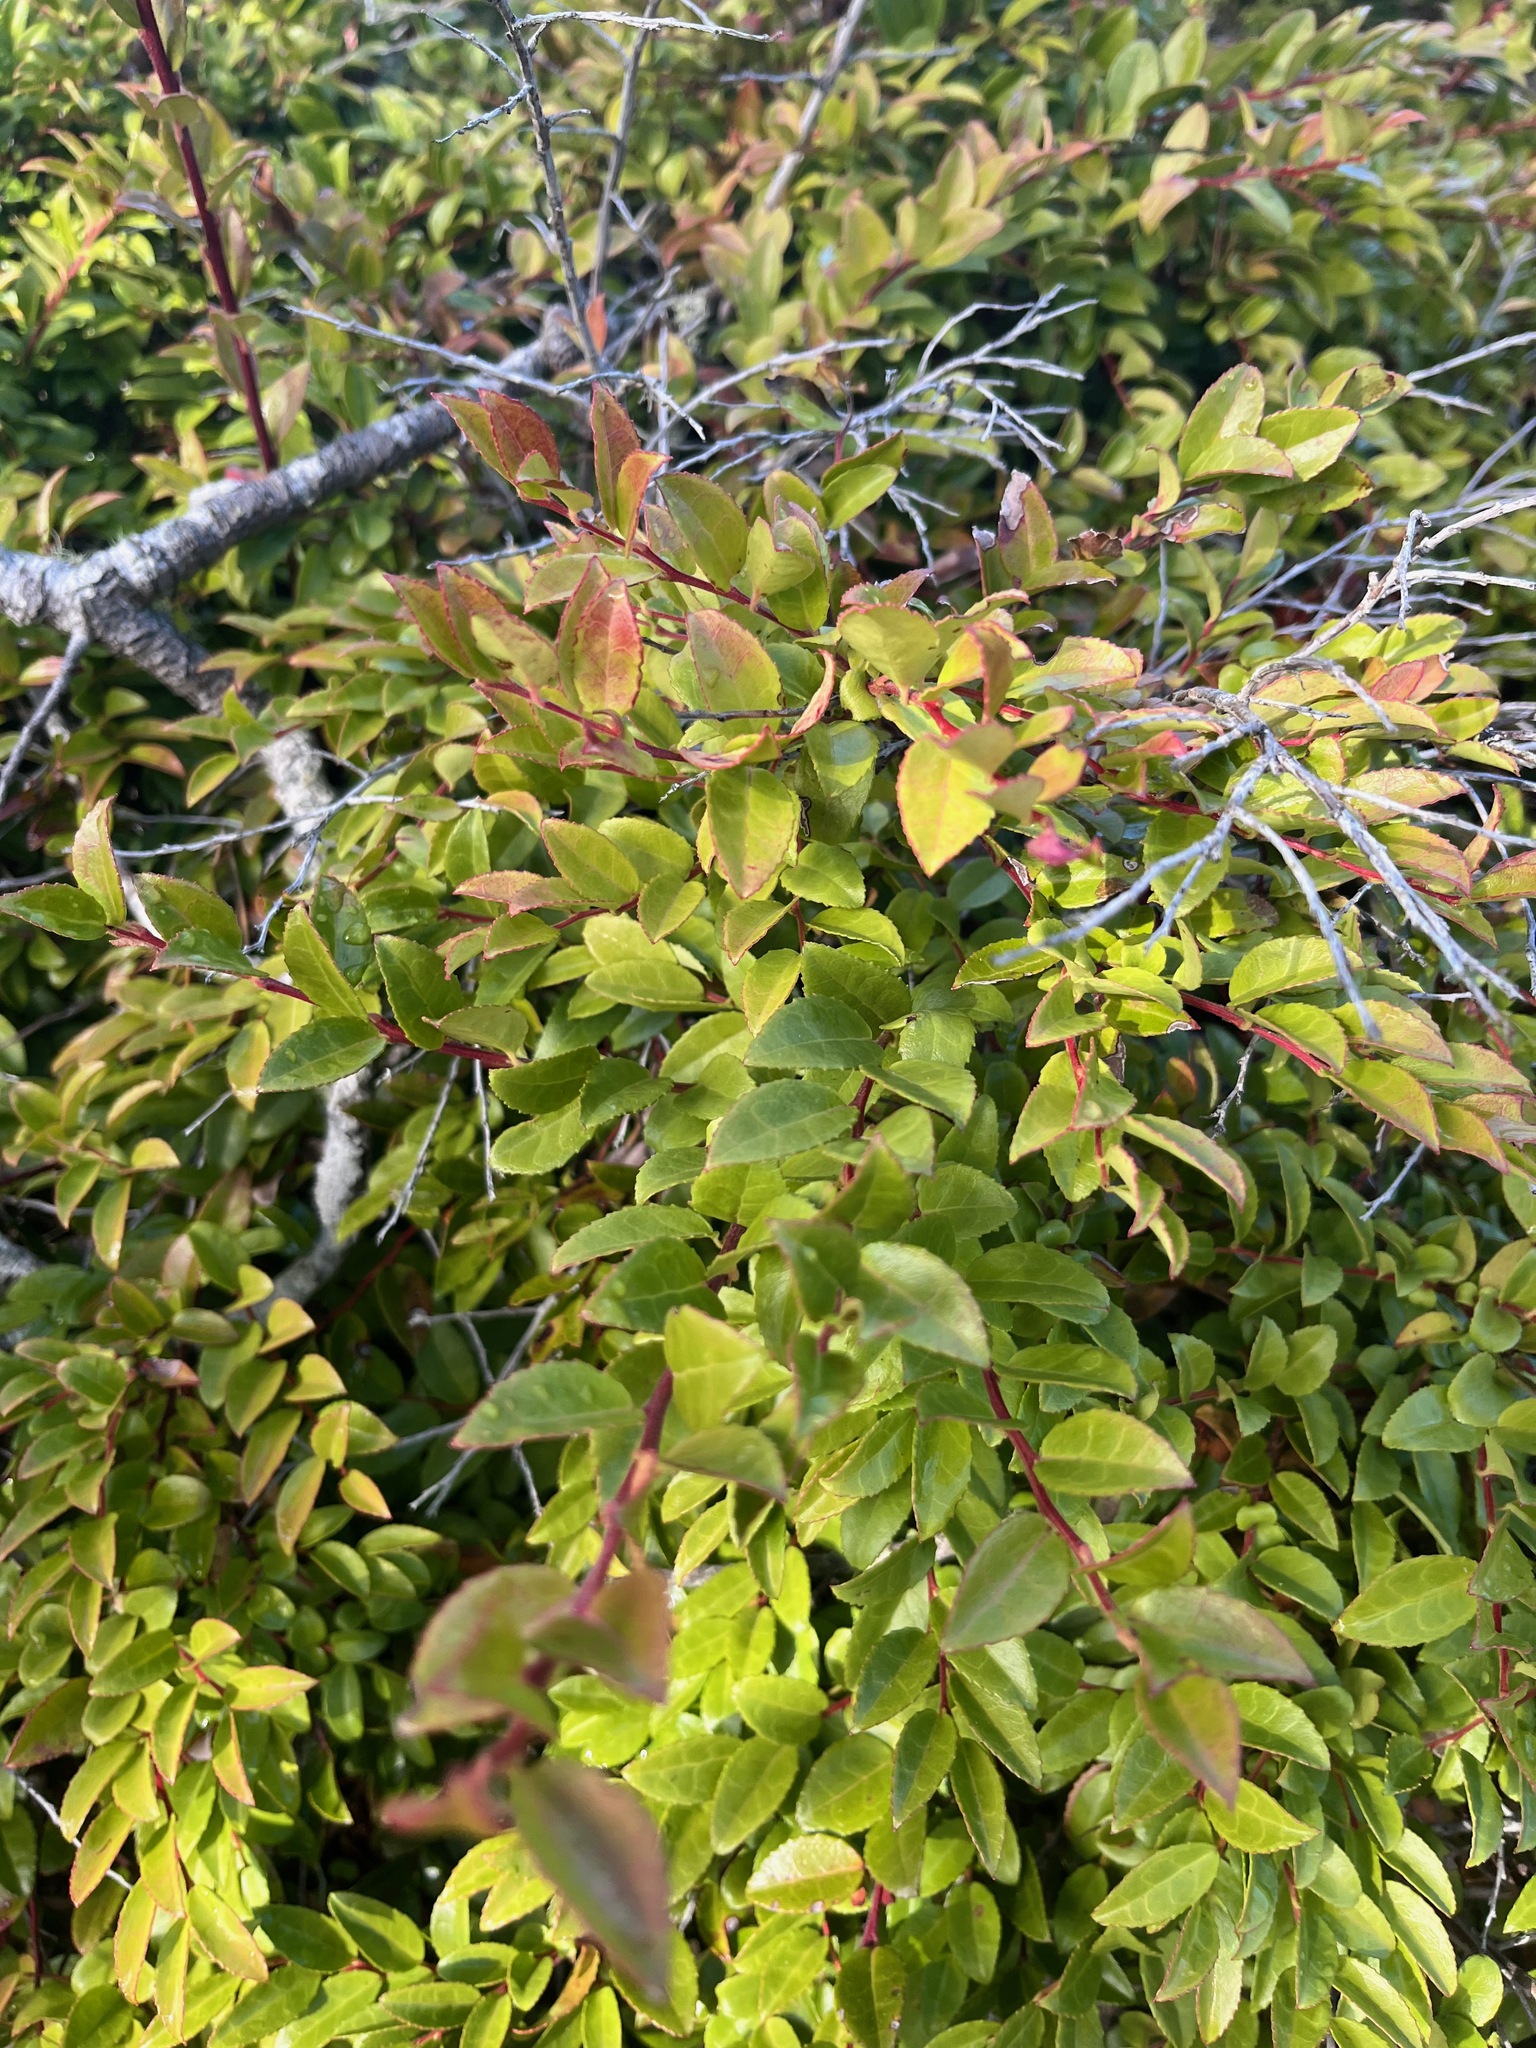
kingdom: Plantae
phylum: Tracheophyta
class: Magnoliopsida
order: Ericales
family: Ericaceae
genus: Vaccinium
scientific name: Vaccinium ovatum
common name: California-huckleberry
